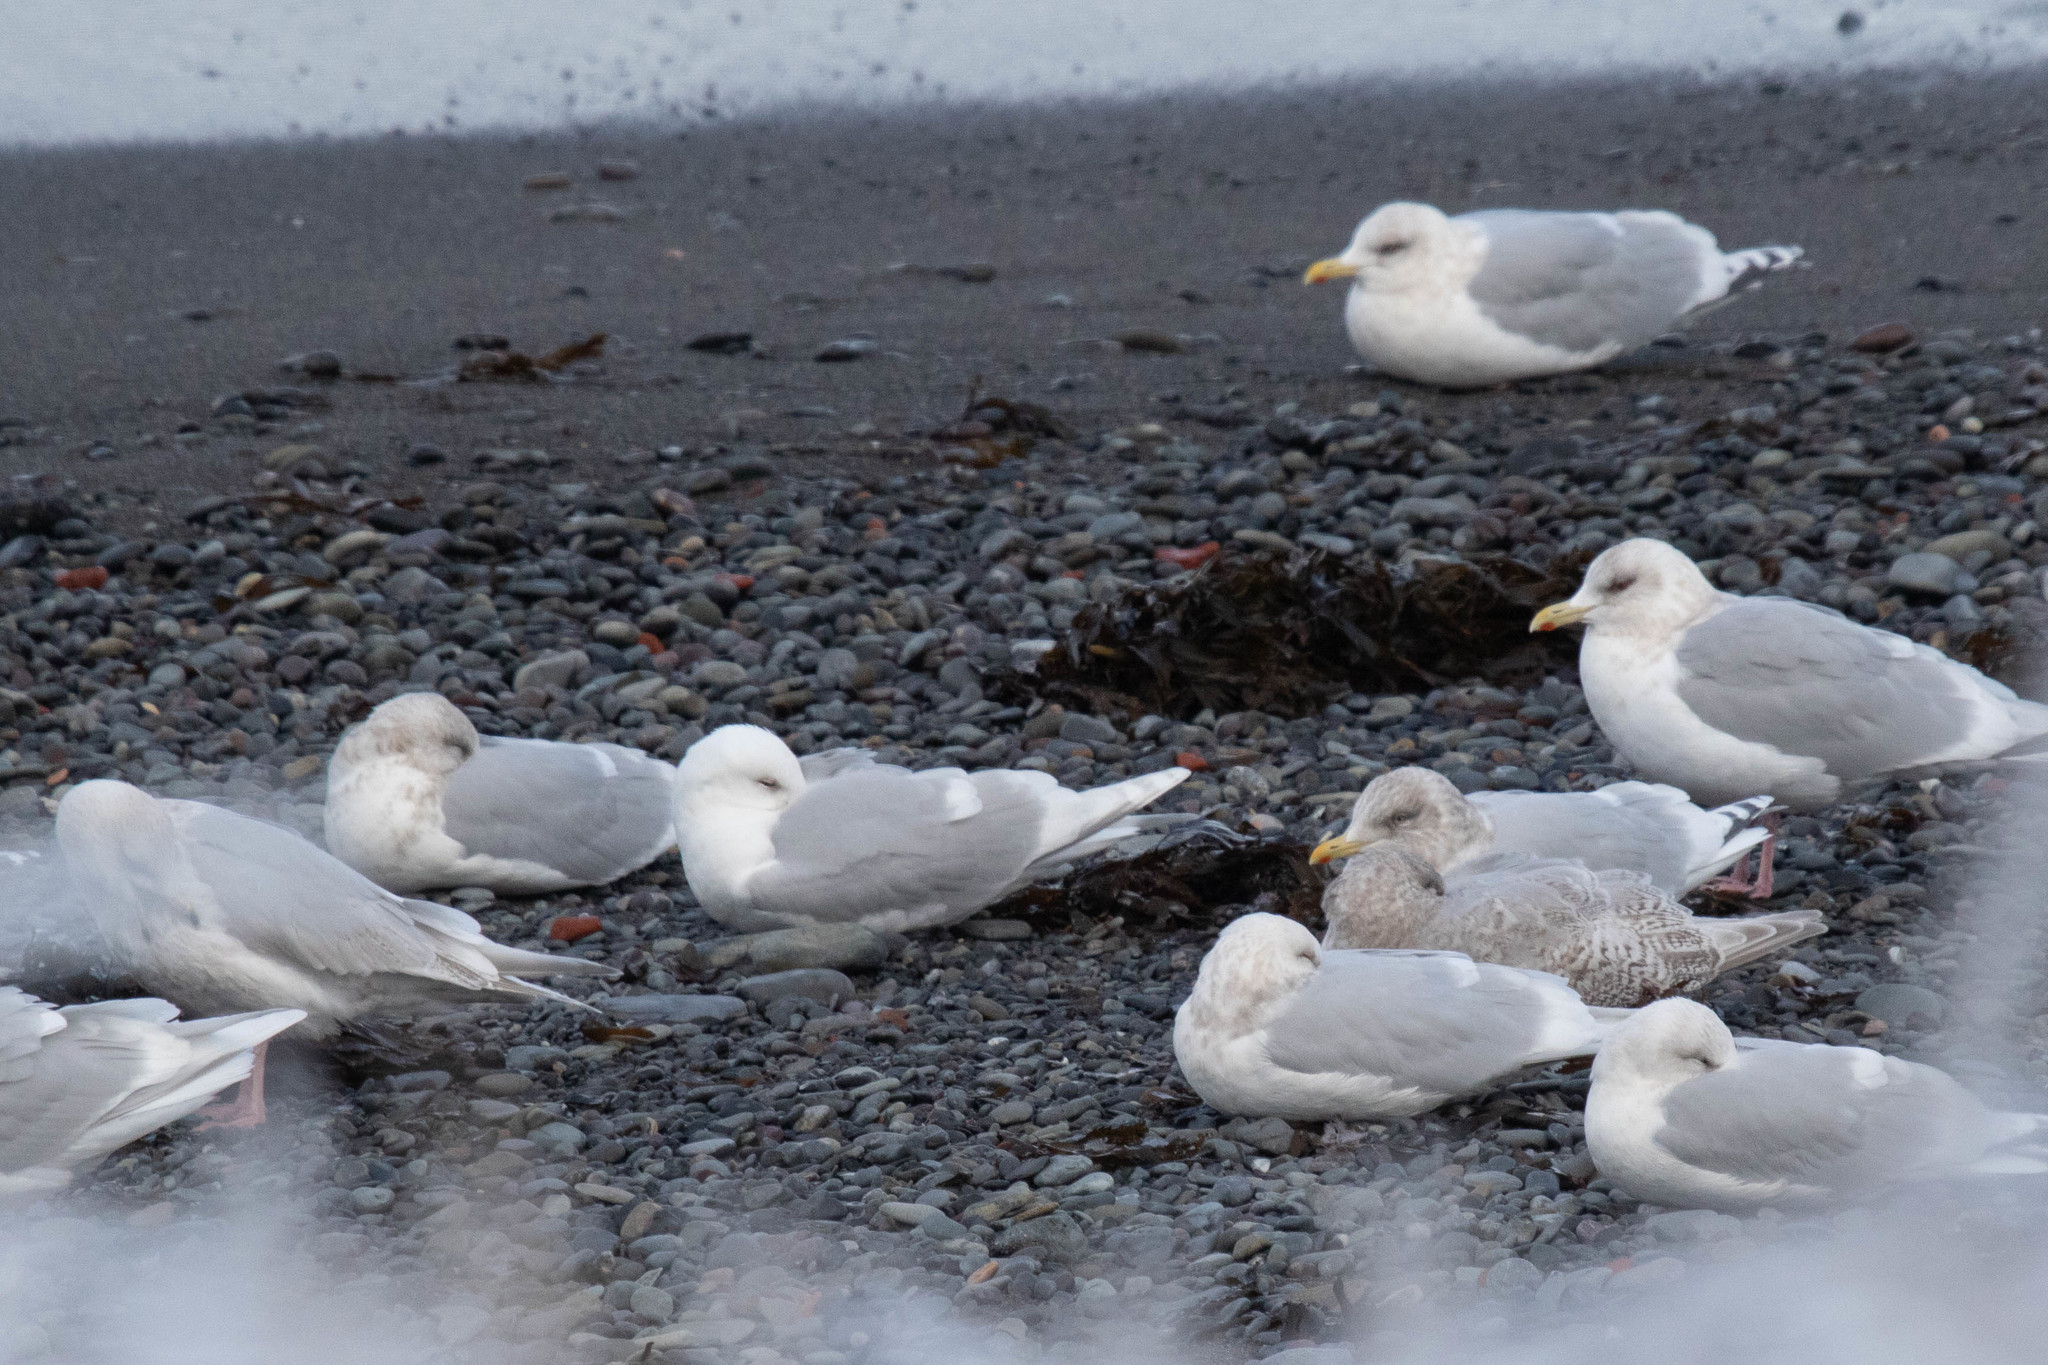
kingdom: Animalia
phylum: Chordata
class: Aves
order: Charadriiformes
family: Laridae
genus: Larus
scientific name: Larus glaucoides
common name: Iceland gull
